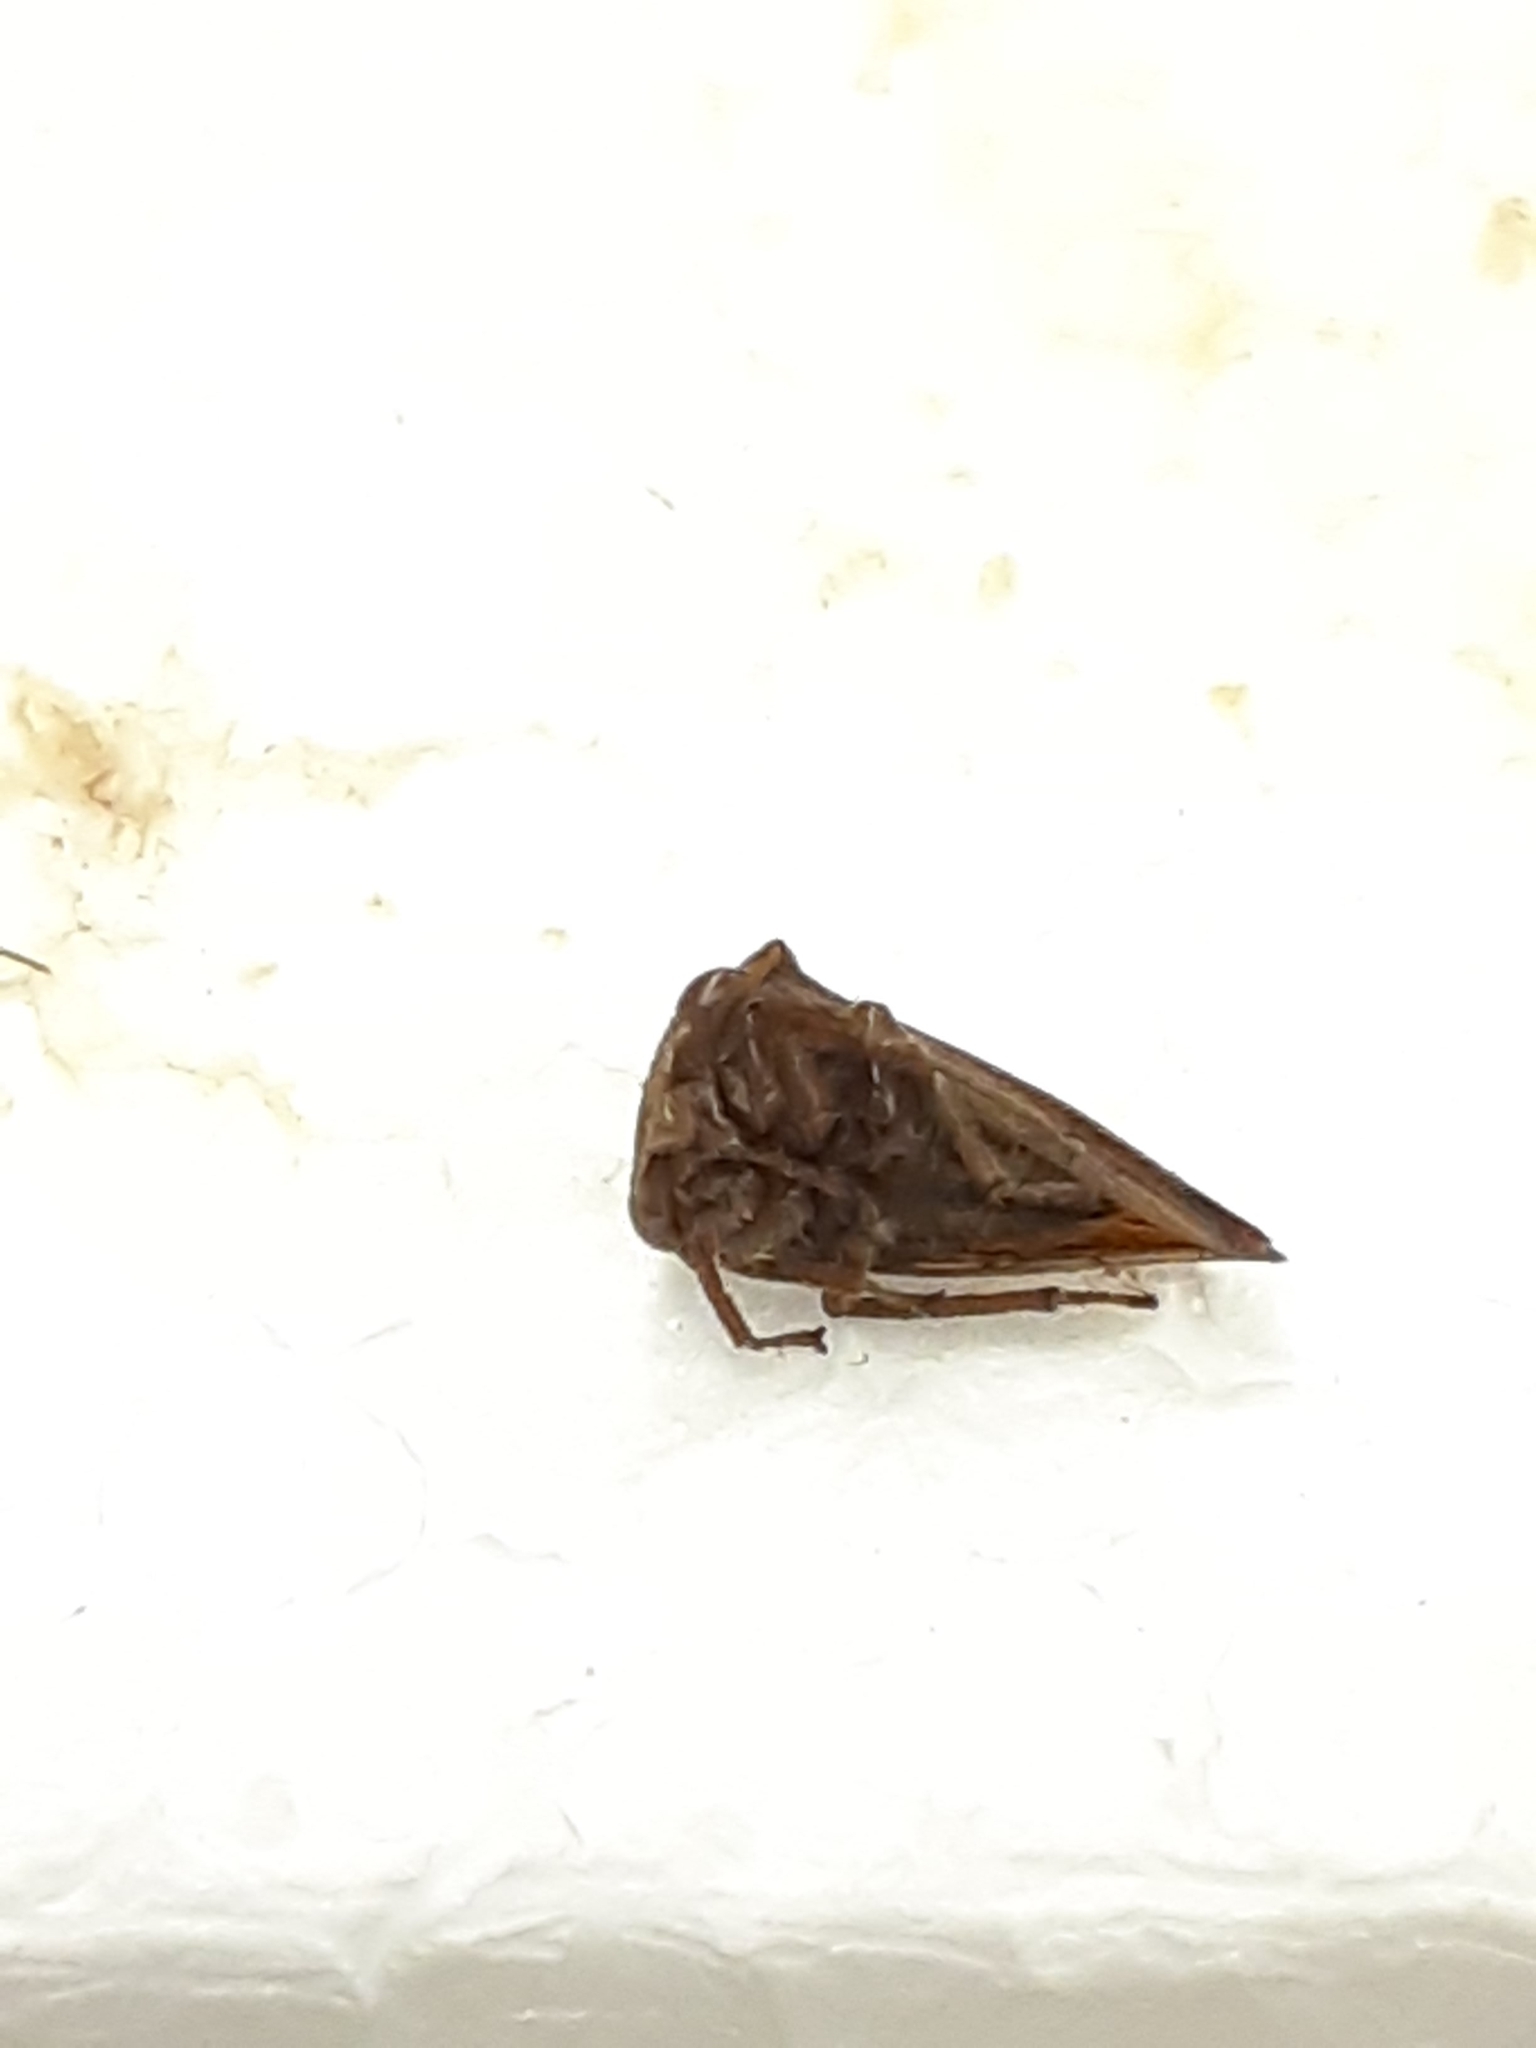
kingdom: Animalia
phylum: Arthropoda
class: Insecta
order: Hemiptera
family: Membracidae
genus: Archasia
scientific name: Archasia pallida
